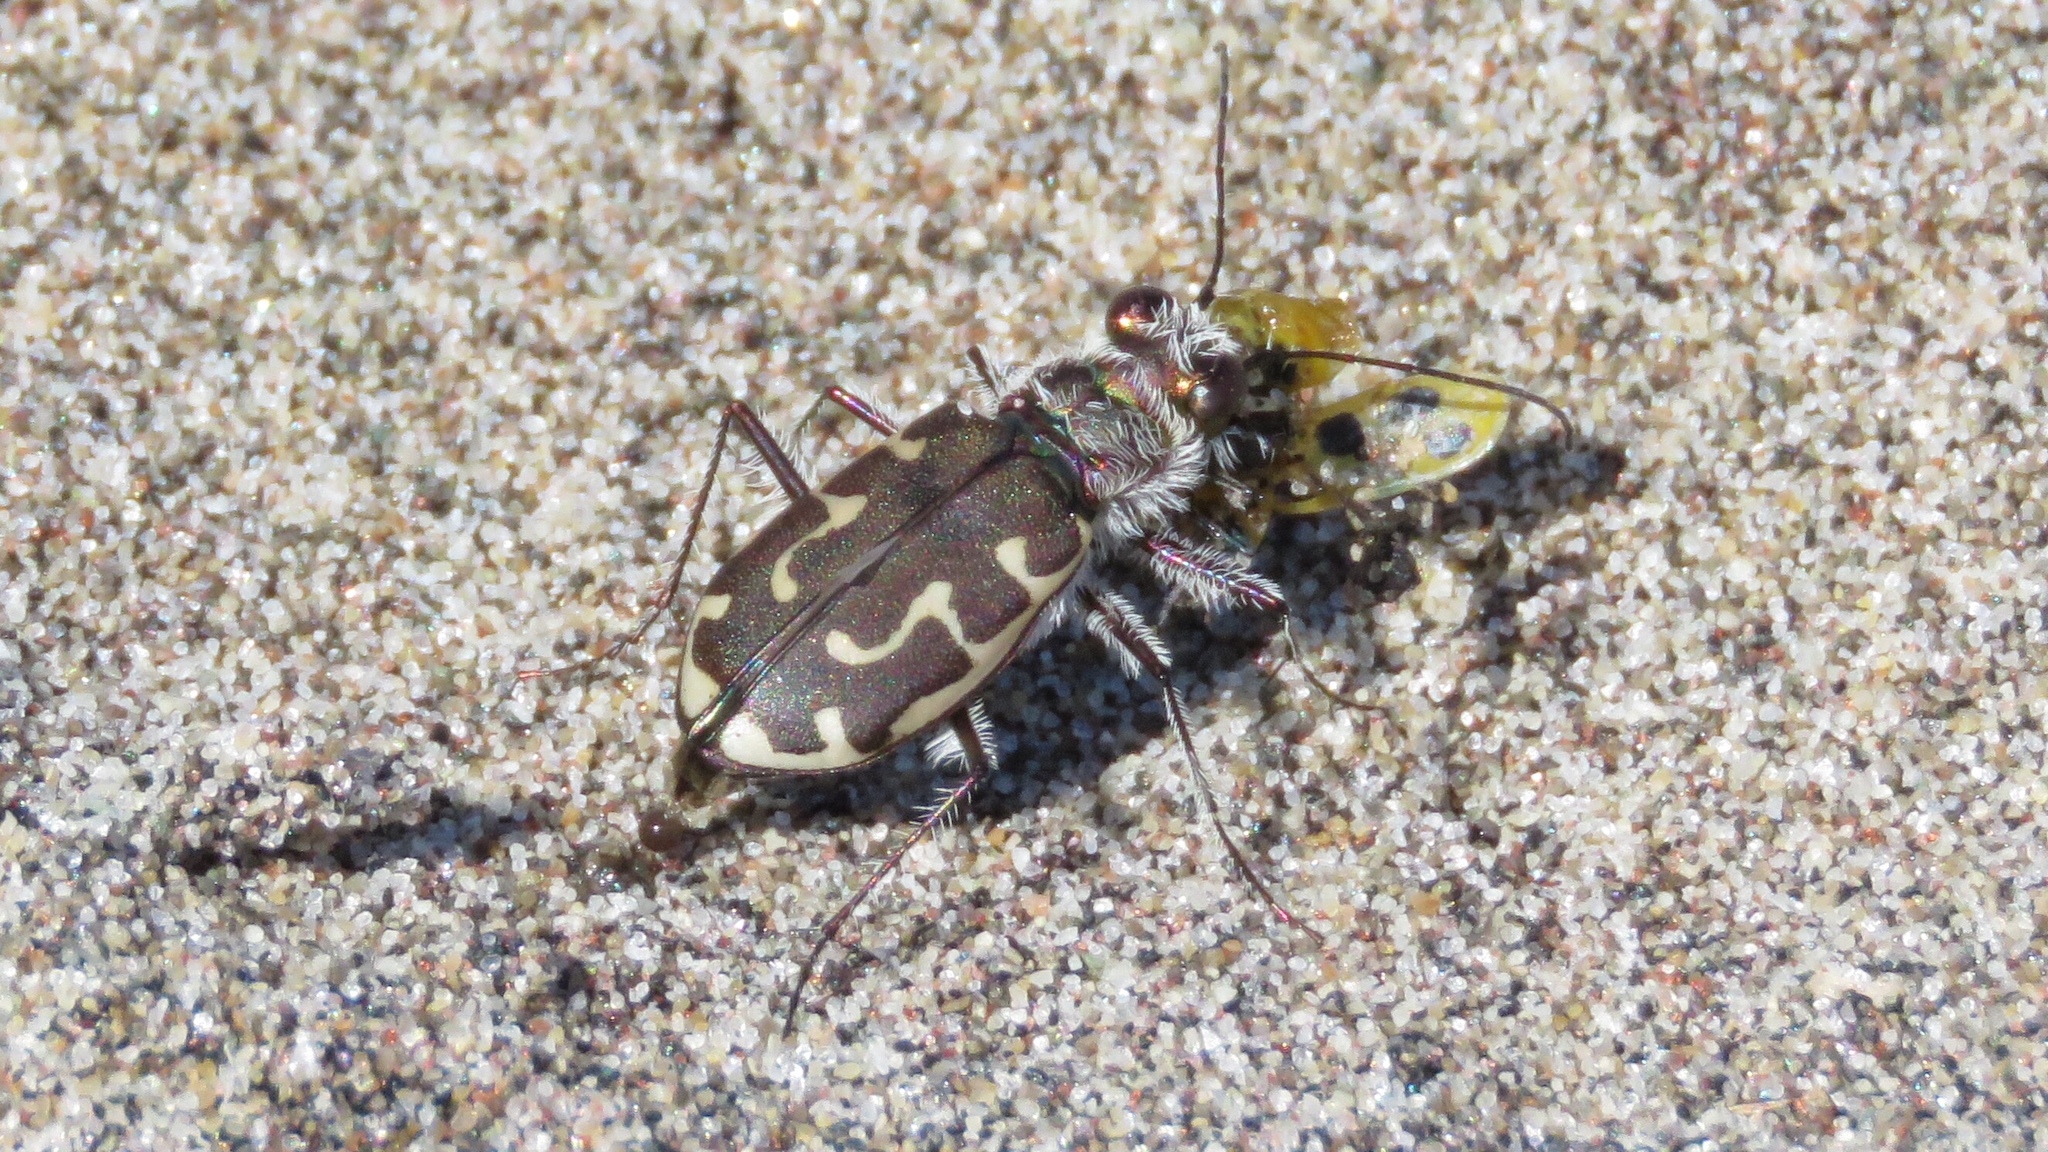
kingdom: Animalia
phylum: Arthropoda
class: Insecta
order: Coleoptera
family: Carabidae
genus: Cicindela
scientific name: Cicindela hirticollis
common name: Hairy-necked tiger beetle
